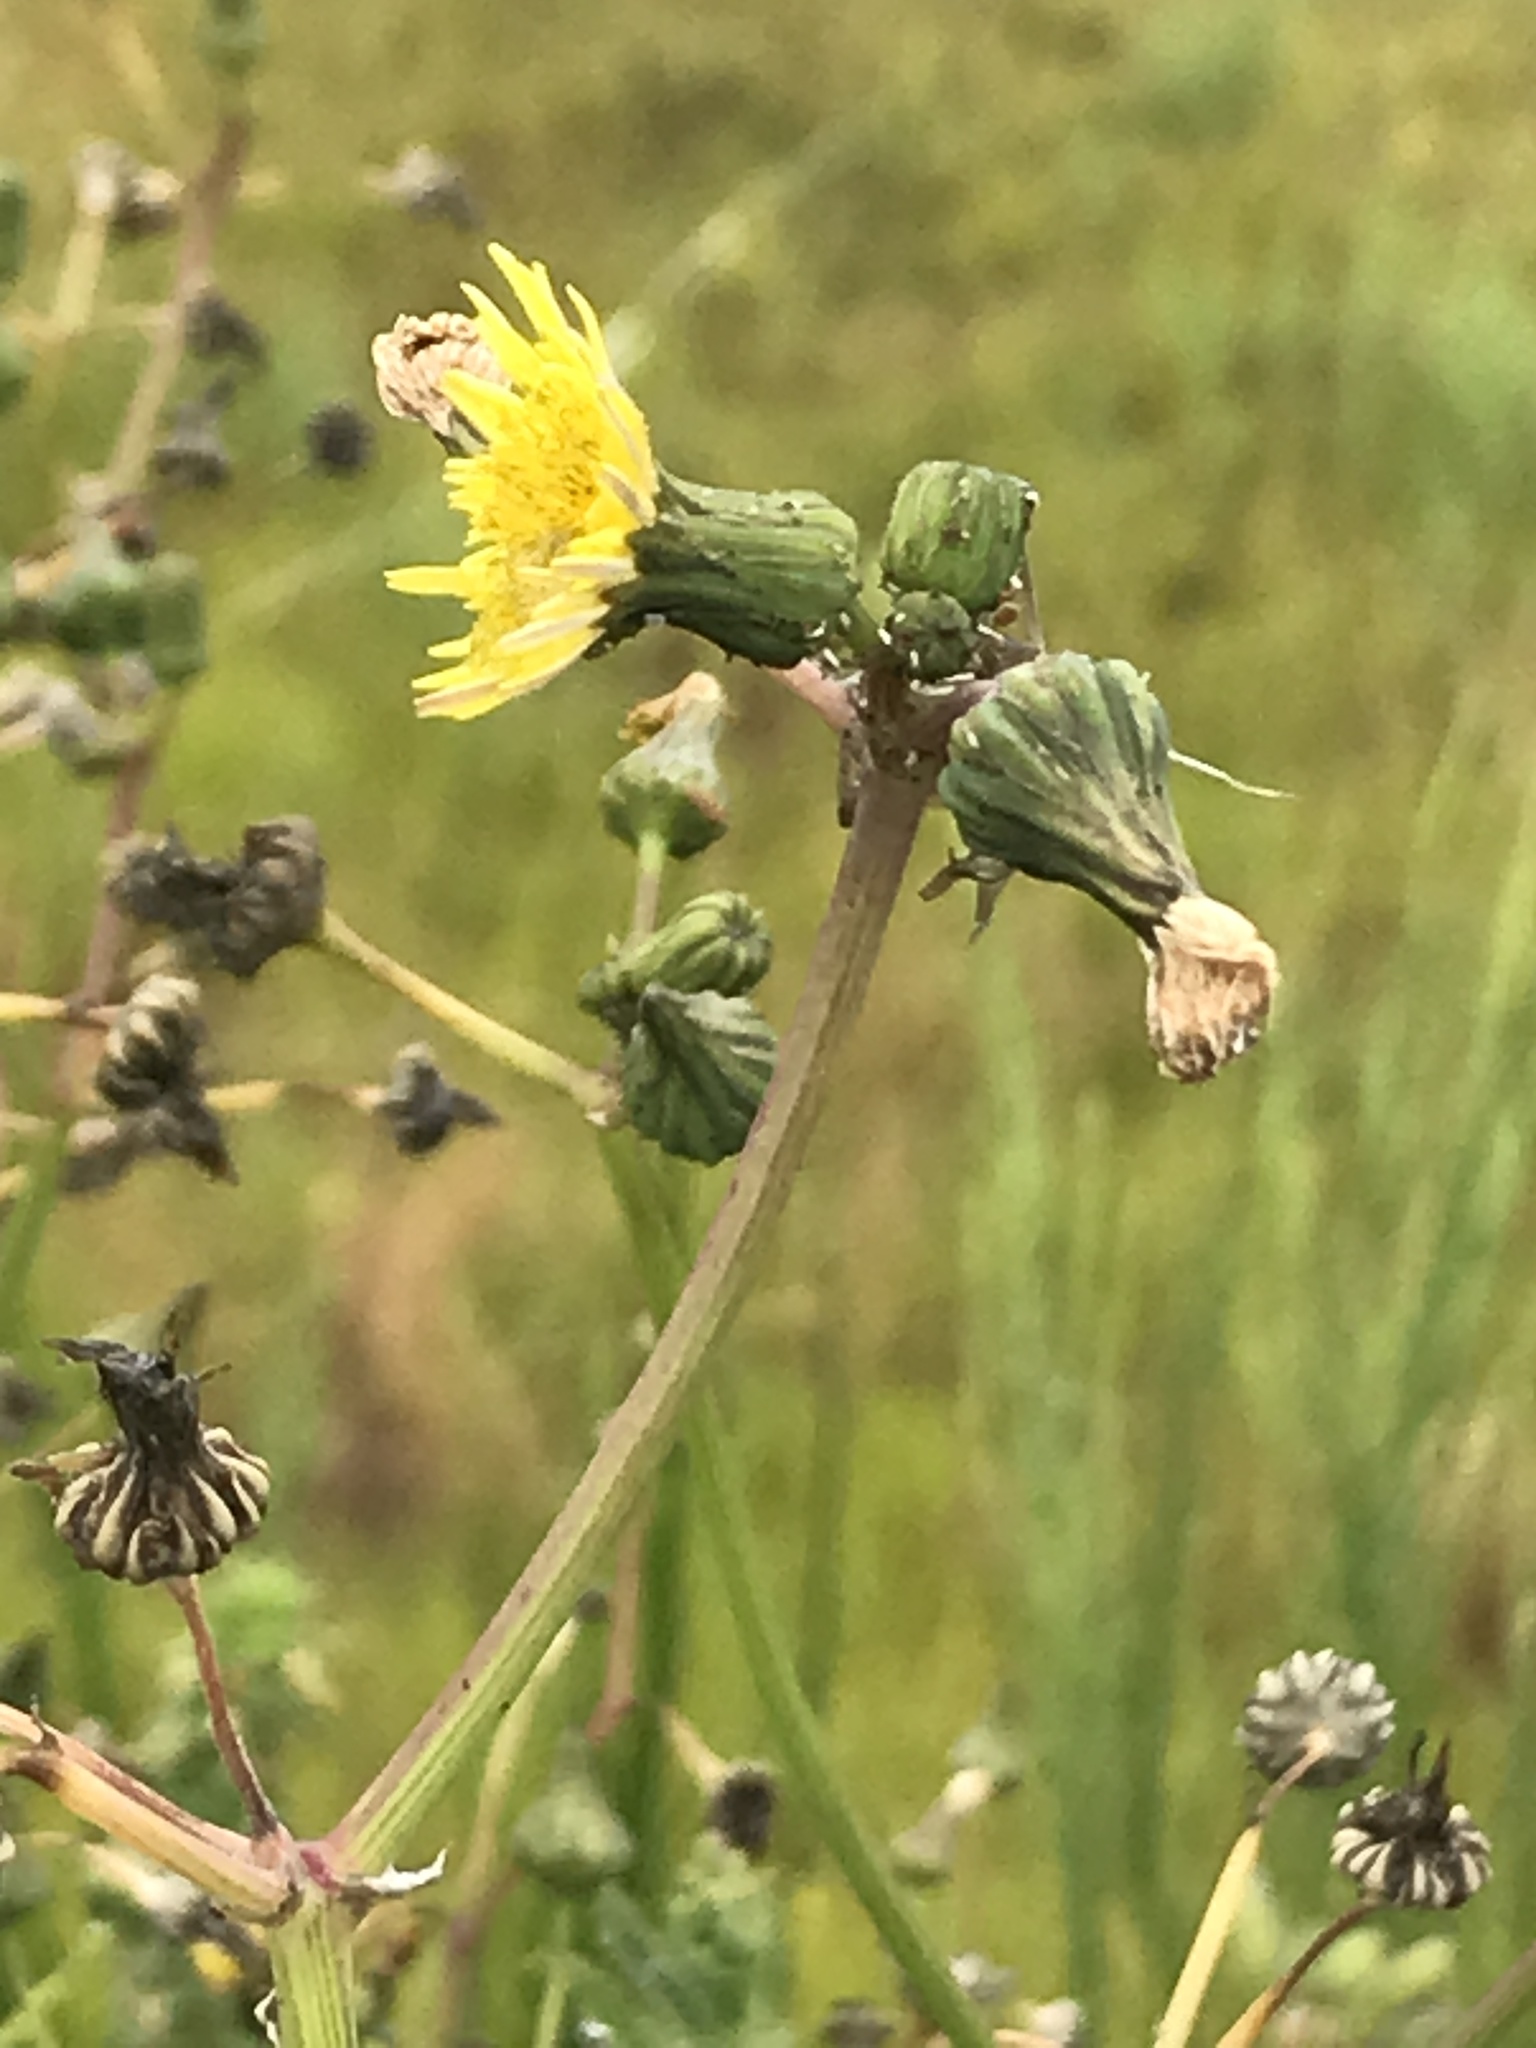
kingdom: Plantae
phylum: Tracheophyta
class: Magnoliopsida
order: Asterales
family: Asteraceae
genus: Sonchus
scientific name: Sonchus asper
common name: Prickly sow-thistle
